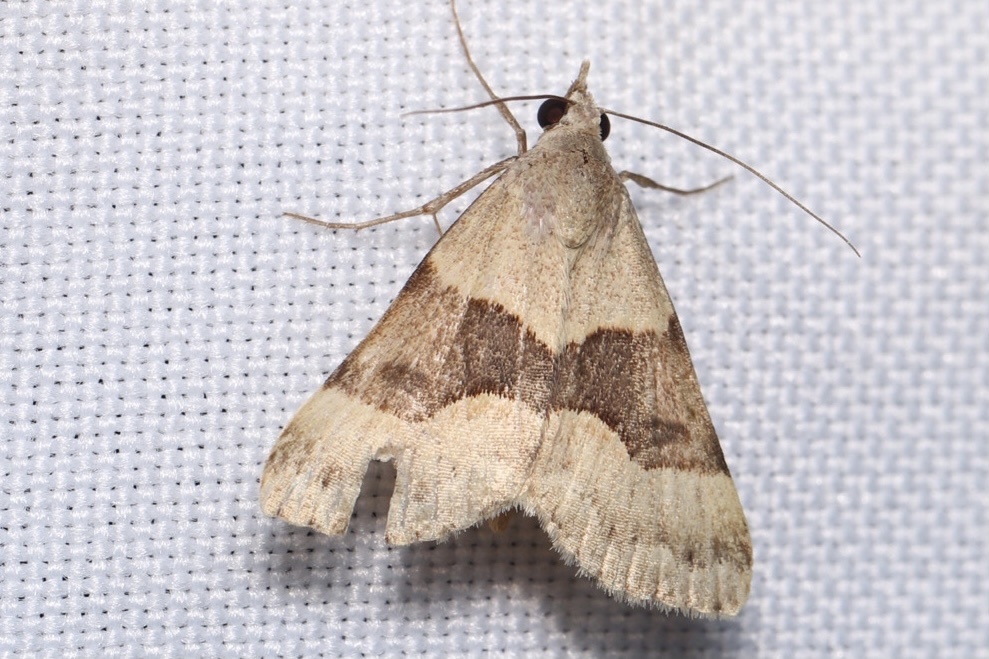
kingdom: Animalia
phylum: Arthropoda
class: Insecta
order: Lepidoptera
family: Erebidae
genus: Hemeroplanis
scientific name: Hemeroplanis incusalis
